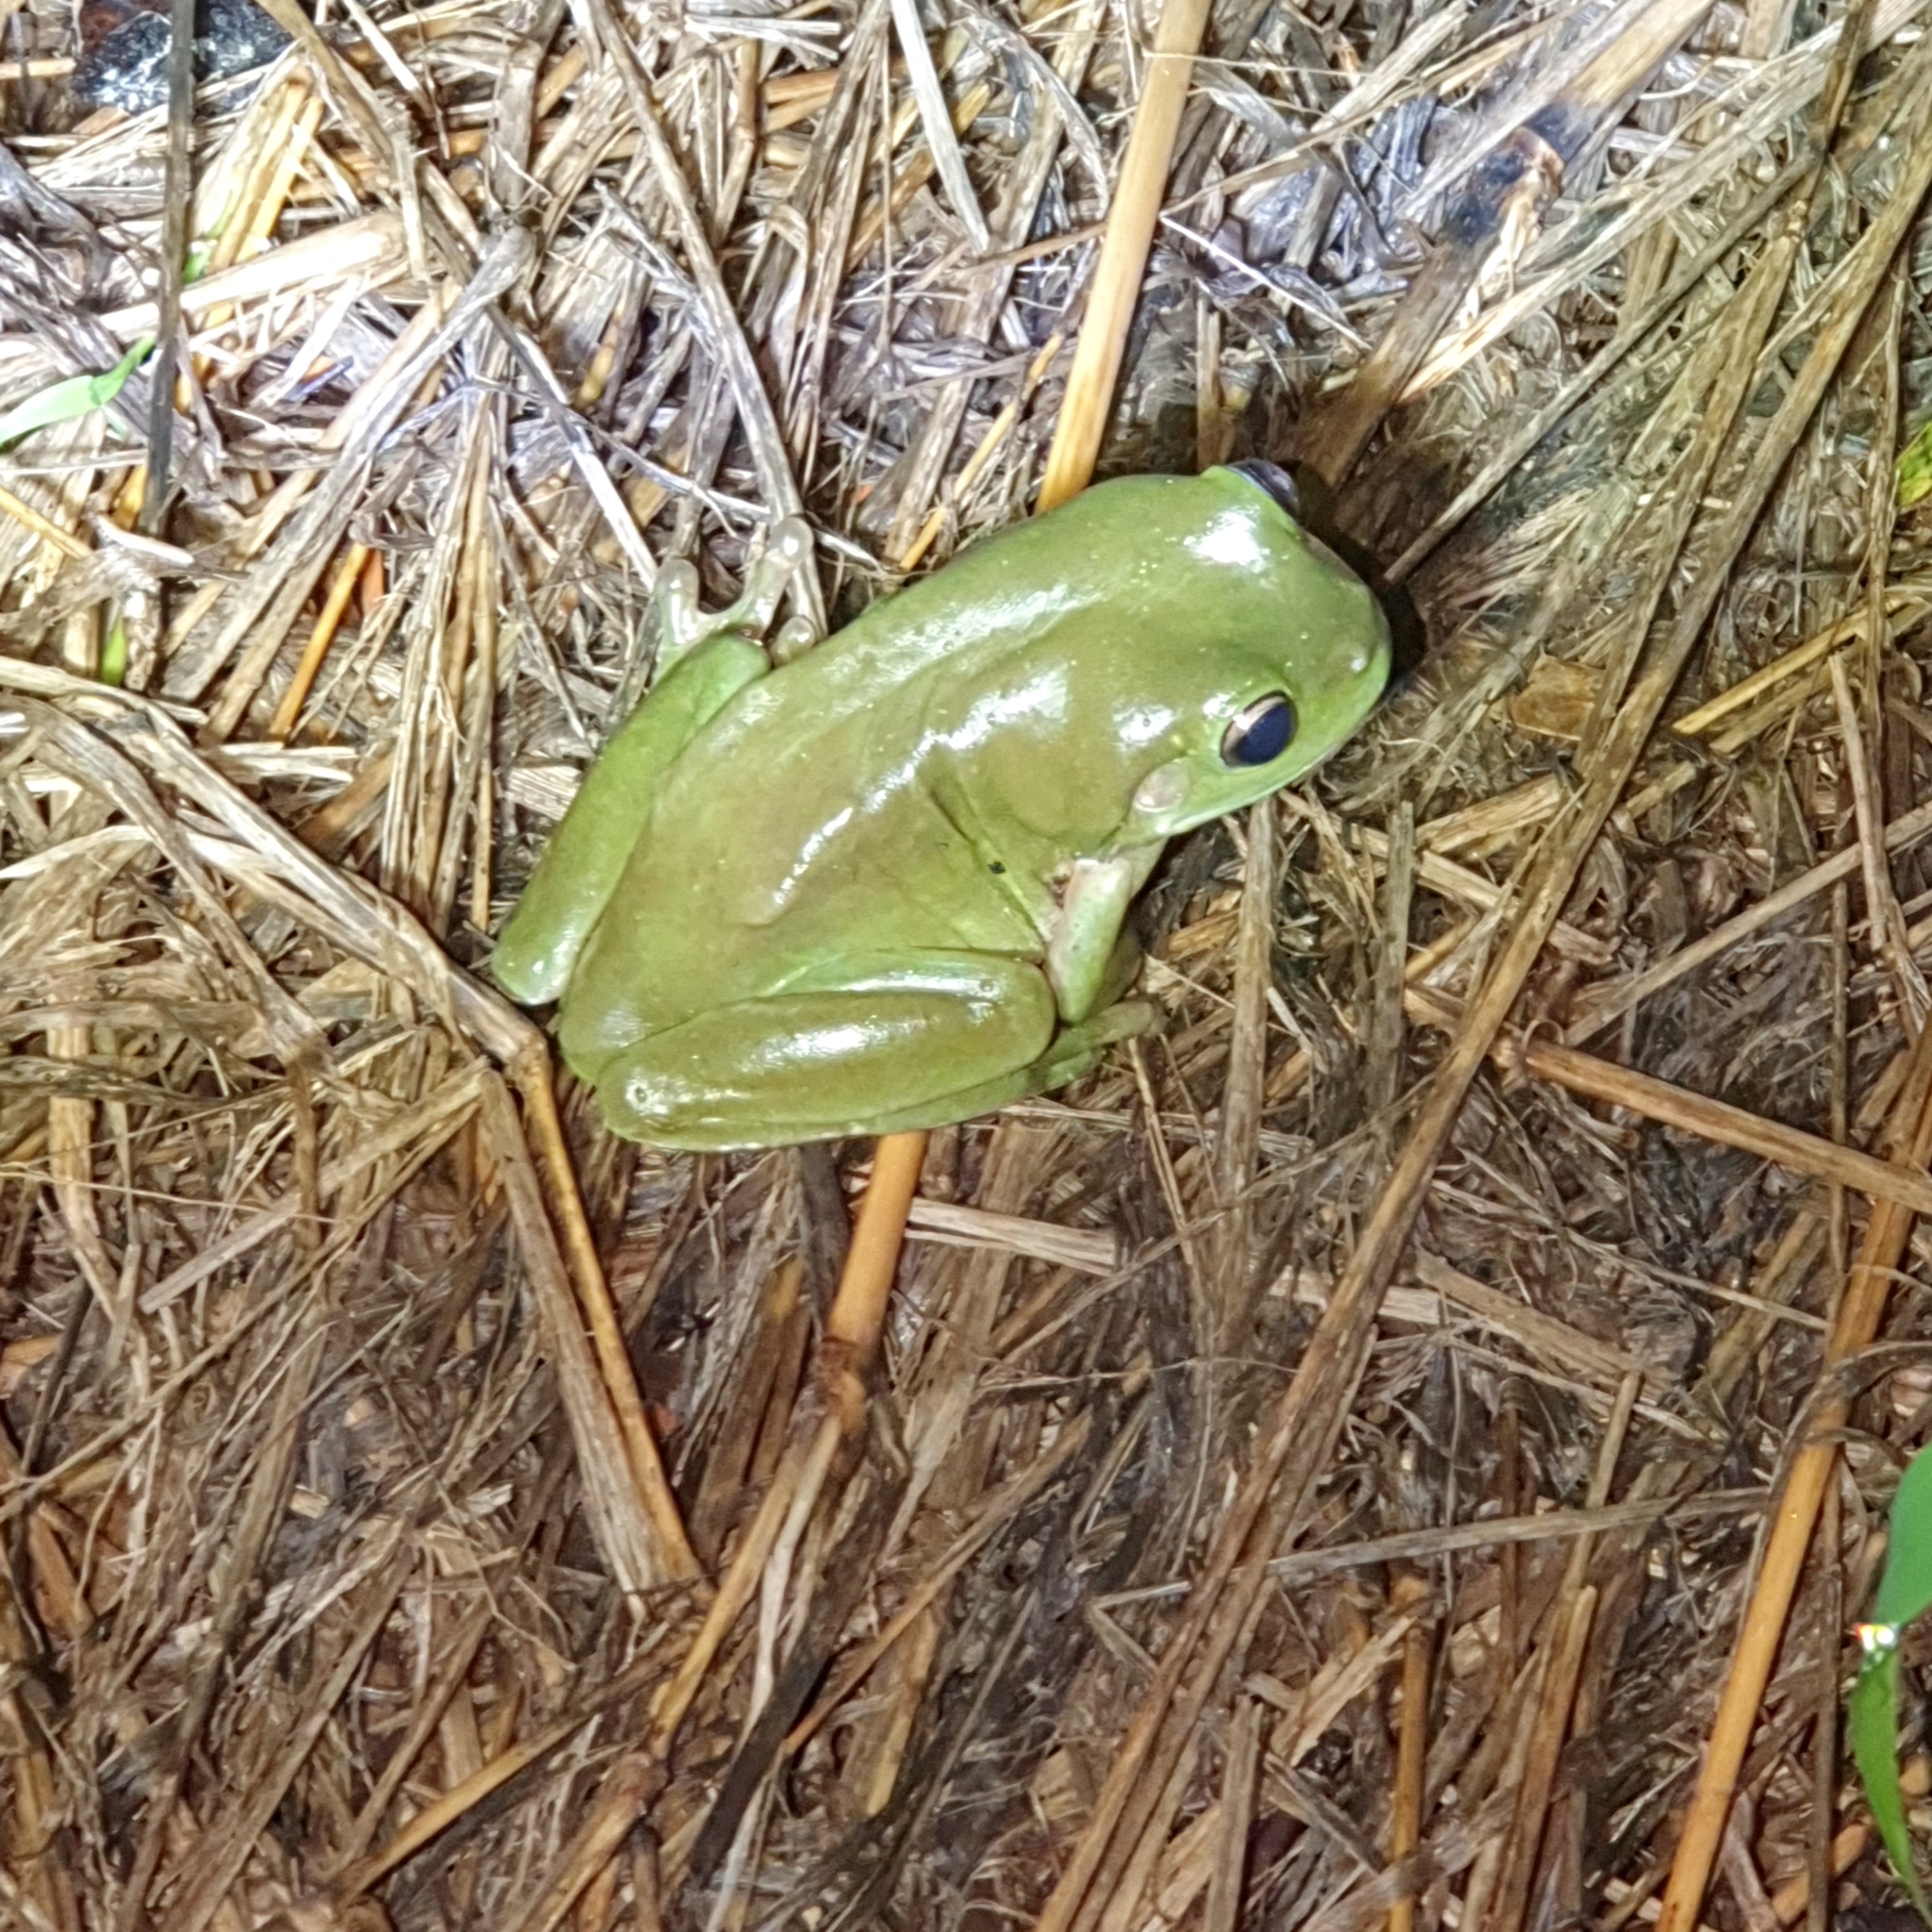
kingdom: Animalia
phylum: Chordata
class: Amphibia
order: Anura
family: Pelodryadidae
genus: Ranoidea
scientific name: Ranoidea caerulea
